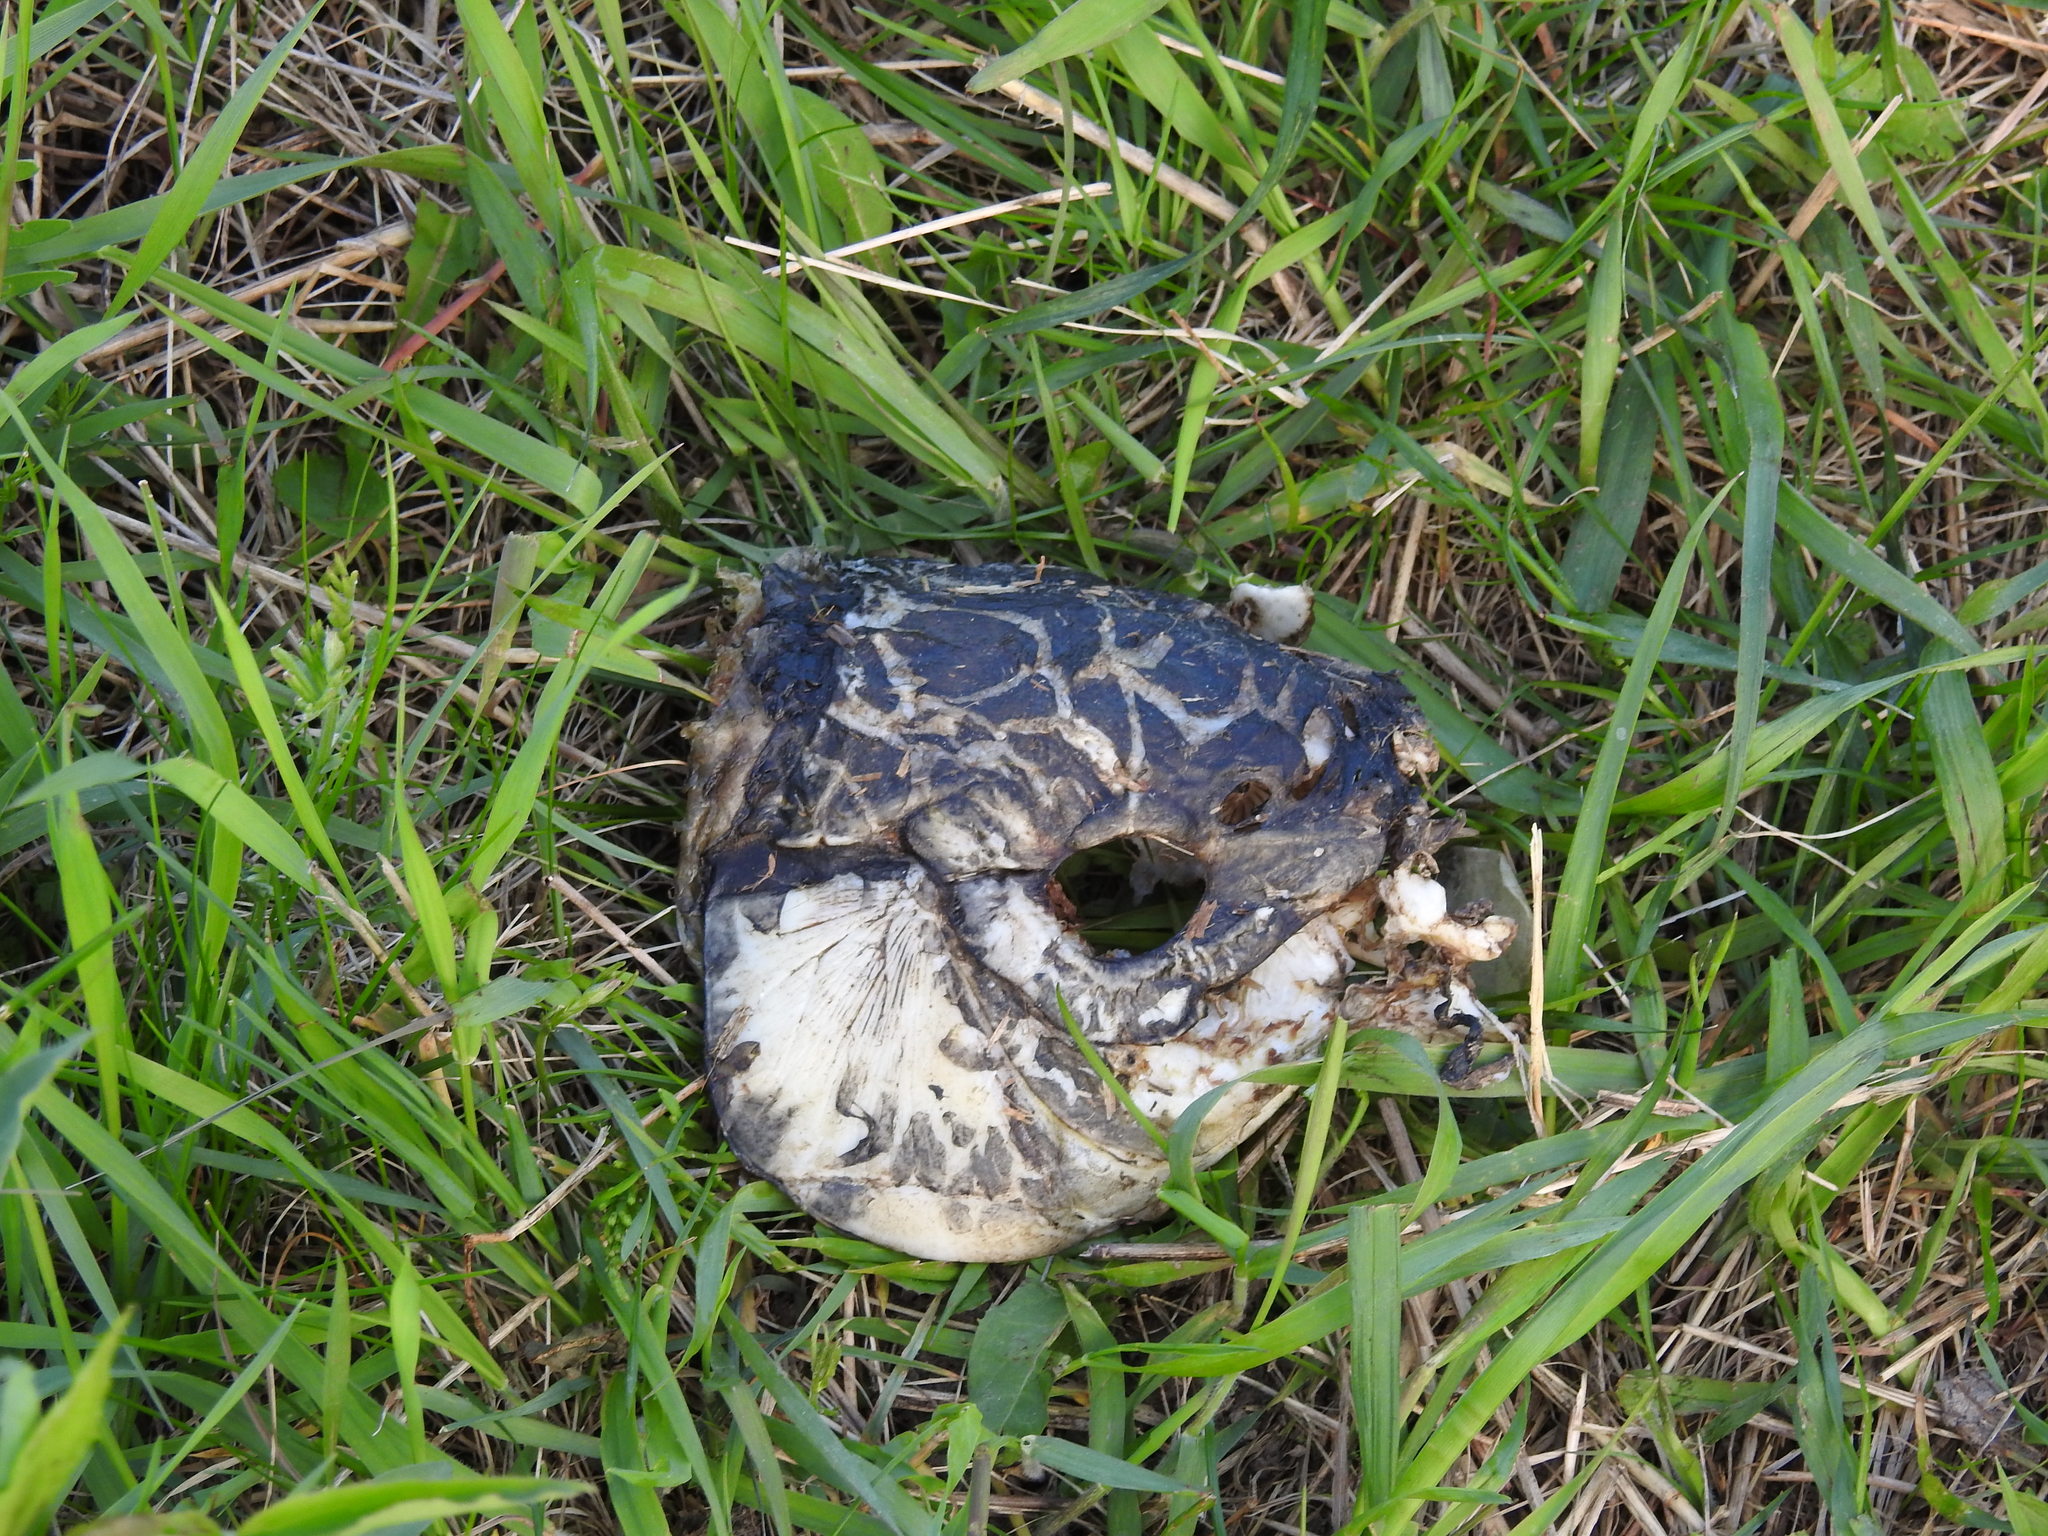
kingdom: Animalia
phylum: Chordata
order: Cypriniformes
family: Cyprinidae
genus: Cyprinus
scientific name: Cyprinus carpio
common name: Common carp
